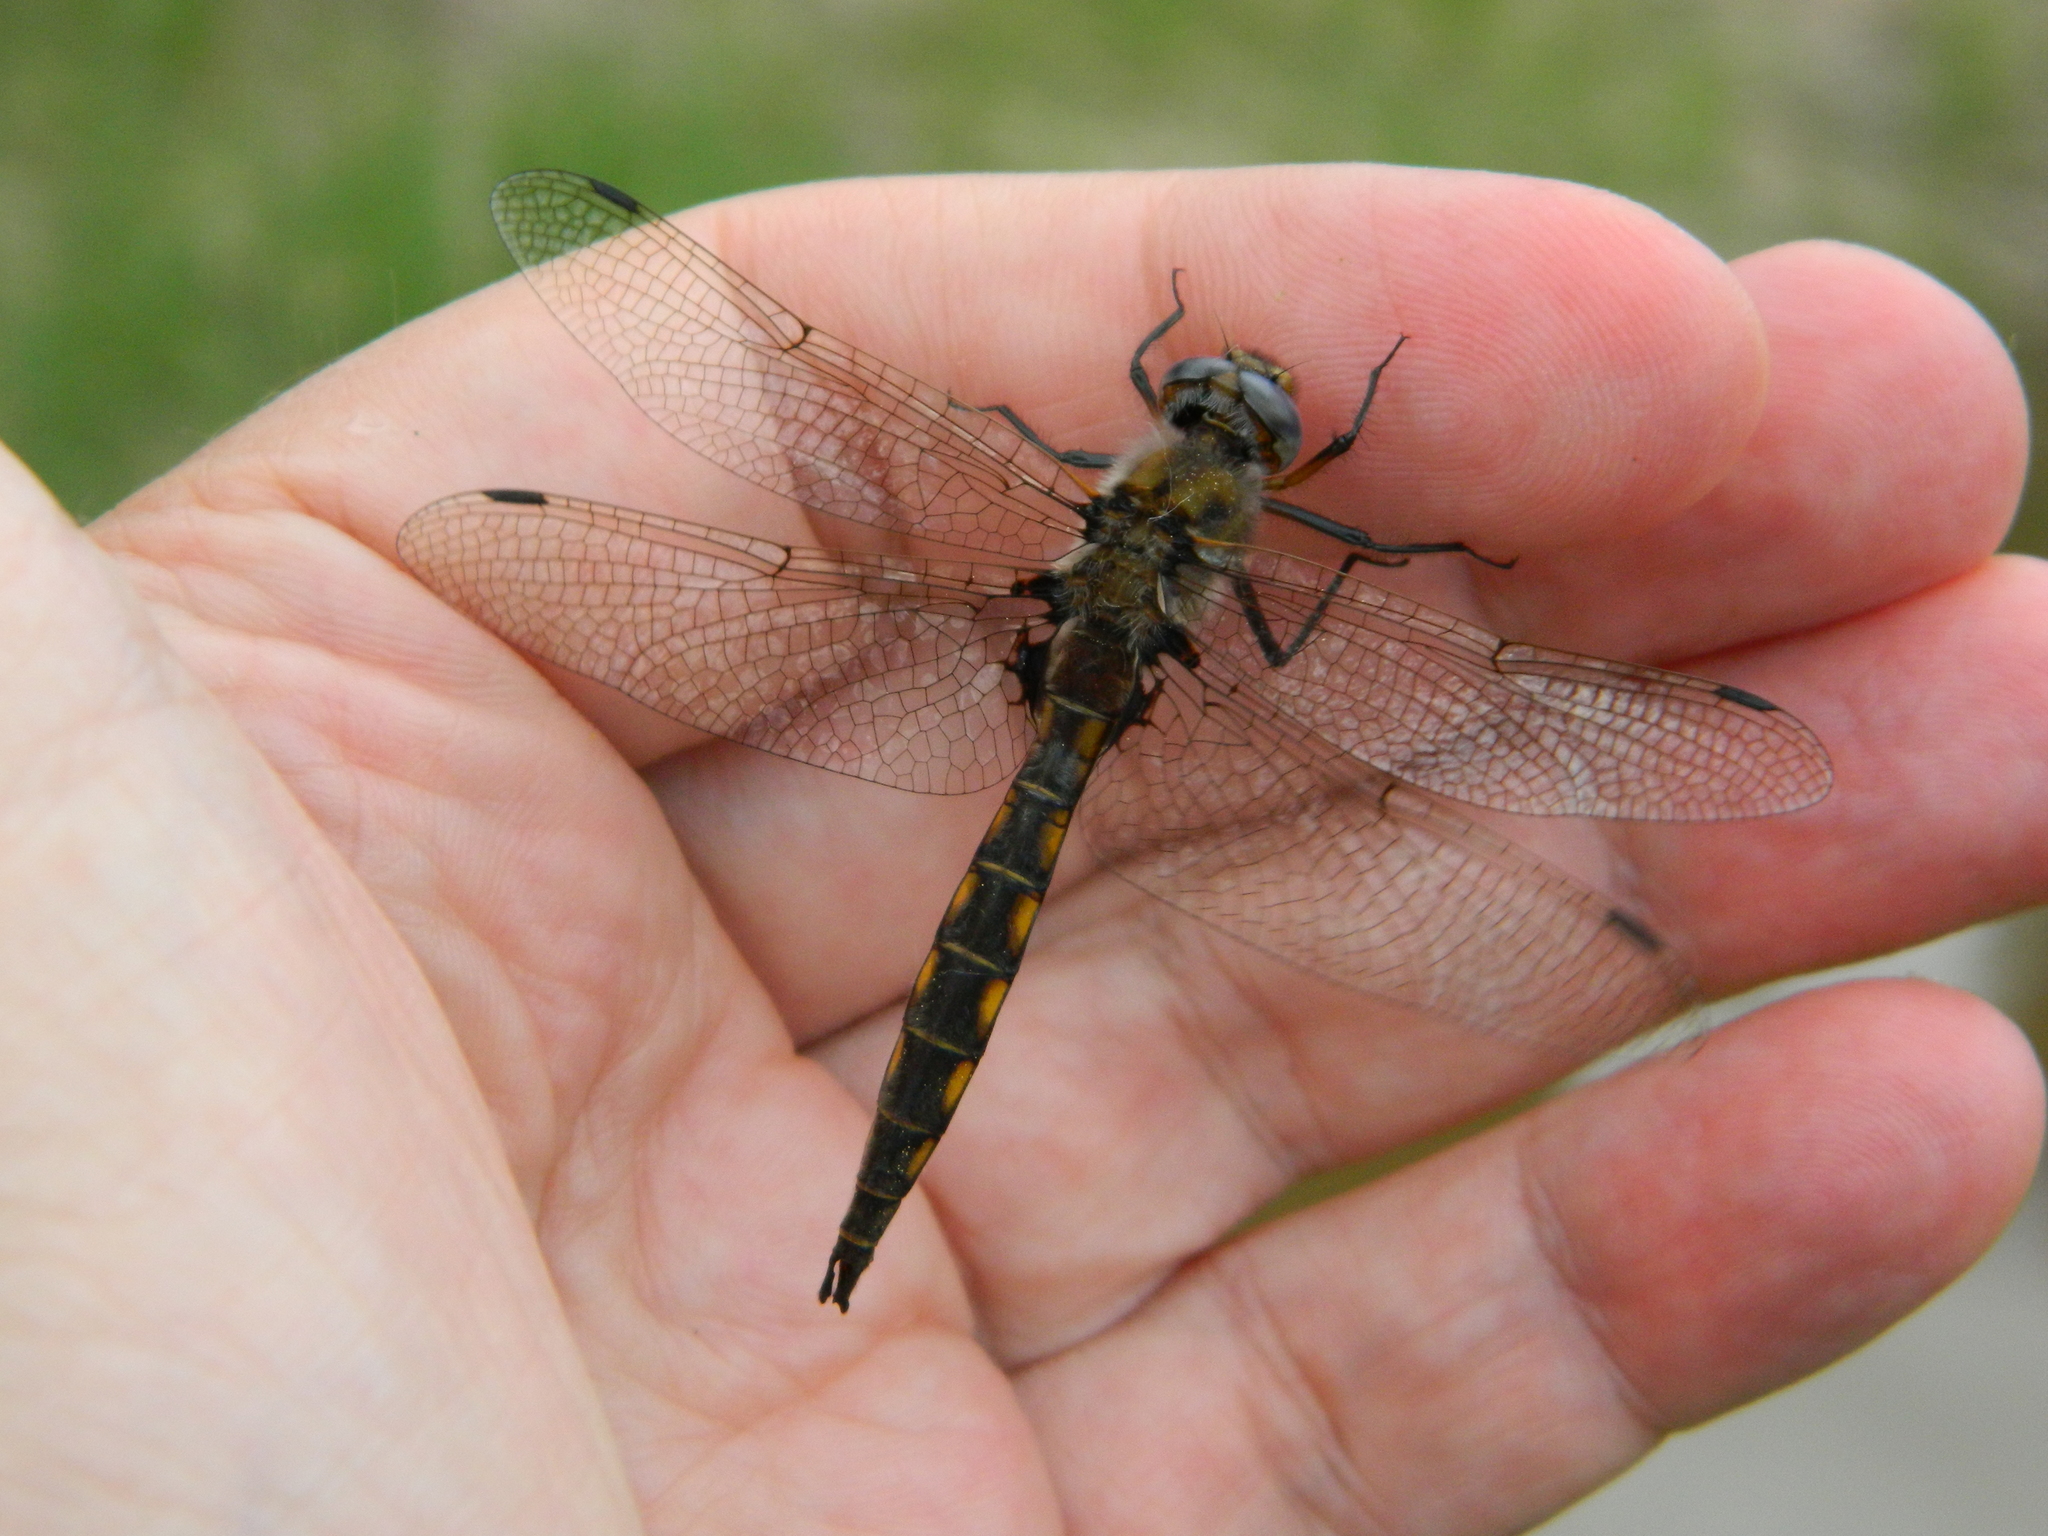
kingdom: Animalia
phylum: Arthropoda
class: Insecta
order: Odonata
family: Corduliidae
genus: Epitheca
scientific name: Epitheca canis
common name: Beaverpond baskettail
